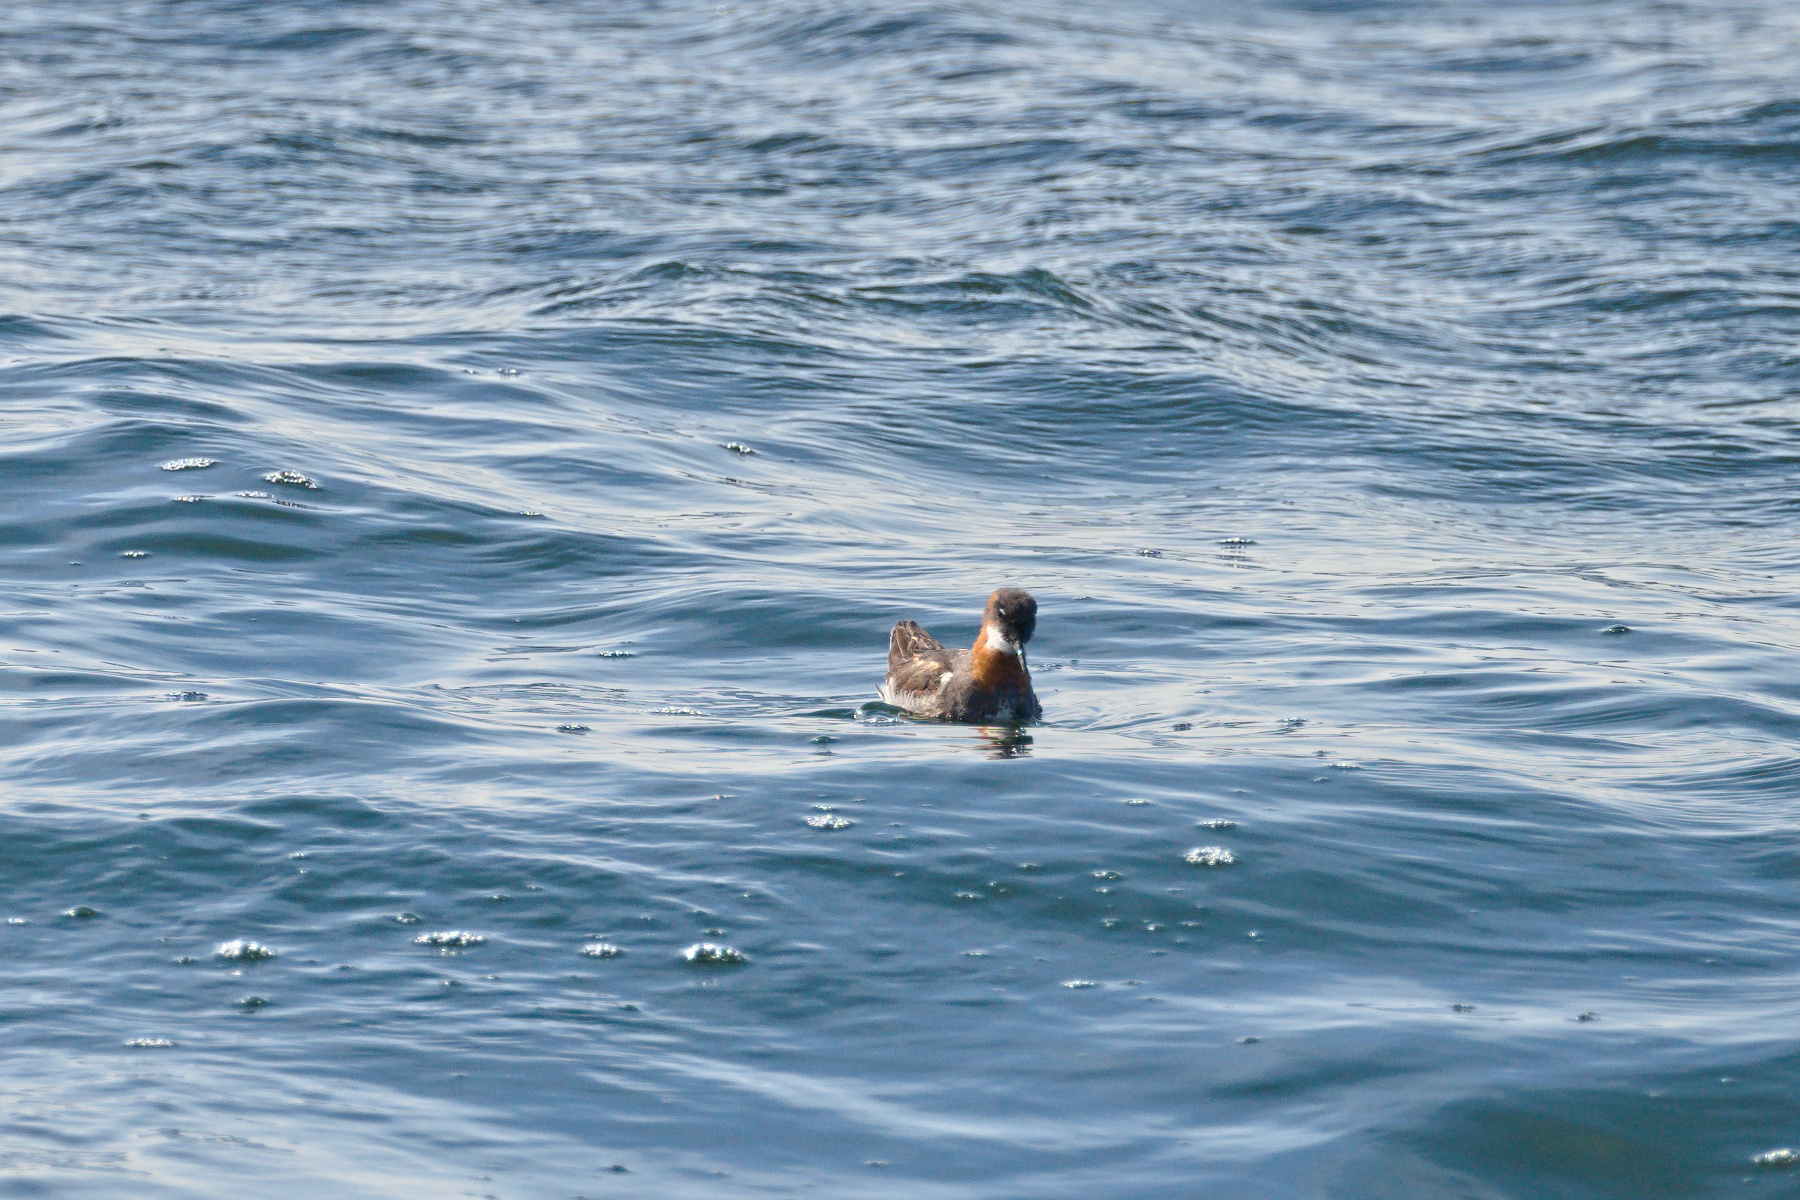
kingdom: Animalia
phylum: Chordata
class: Aves
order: Charadriiformes
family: Scolopacidae
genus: Phalaropus
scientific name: Phalaropus lobatus
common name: Red-necked phalarope
